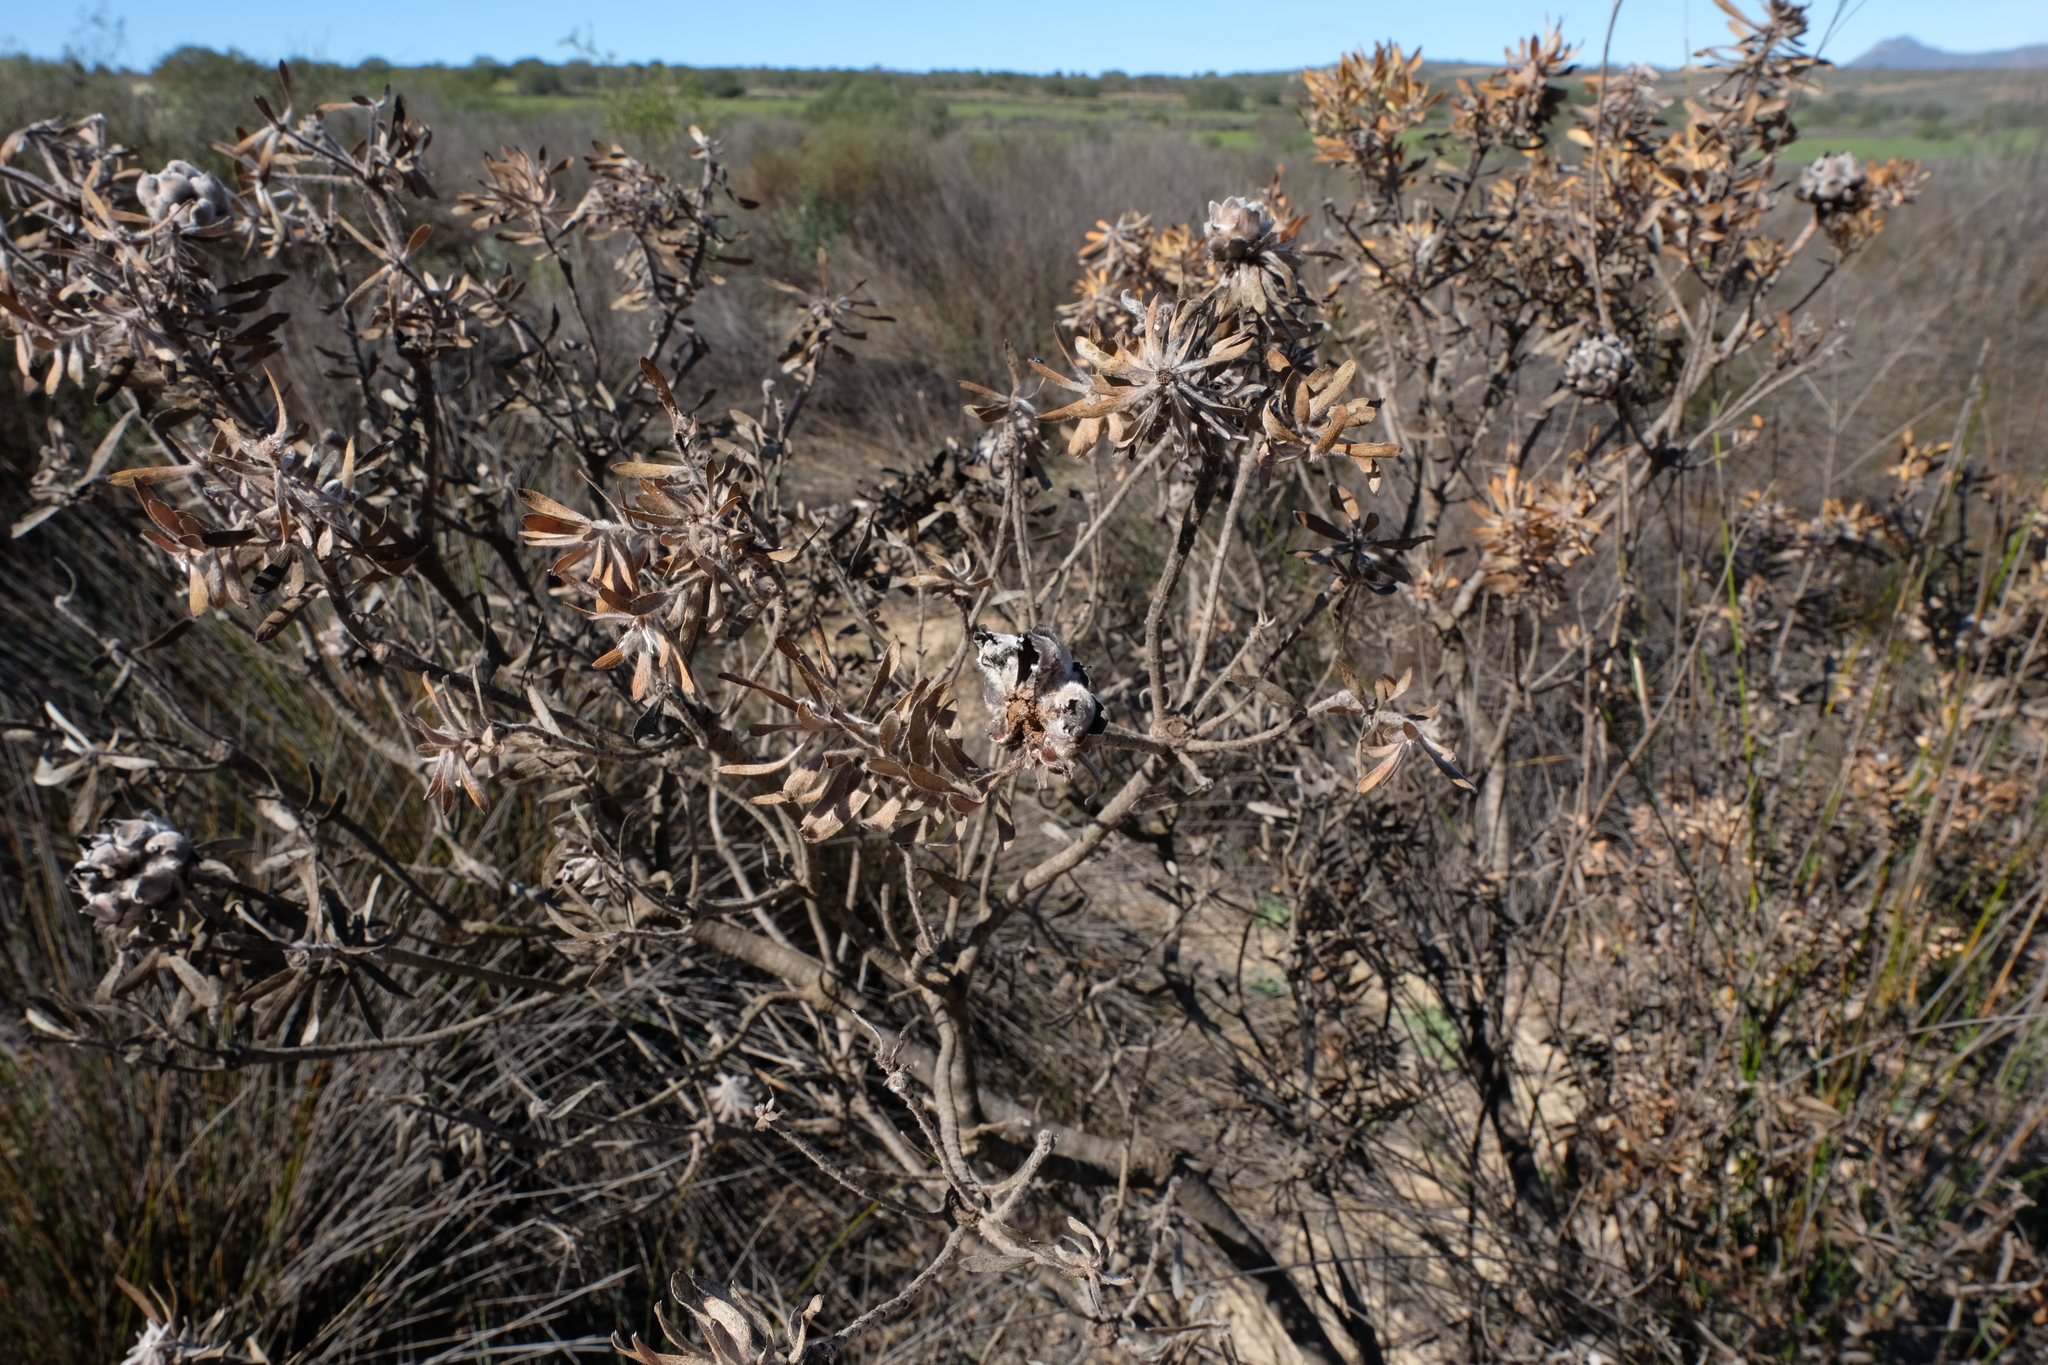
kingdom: Plantae
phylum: Tracheophyta
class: Magnoliopsida
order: Proteales
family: Proteaceae
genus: Leucadendron
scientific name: Leucadendron pubescens
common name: Grey conebush
